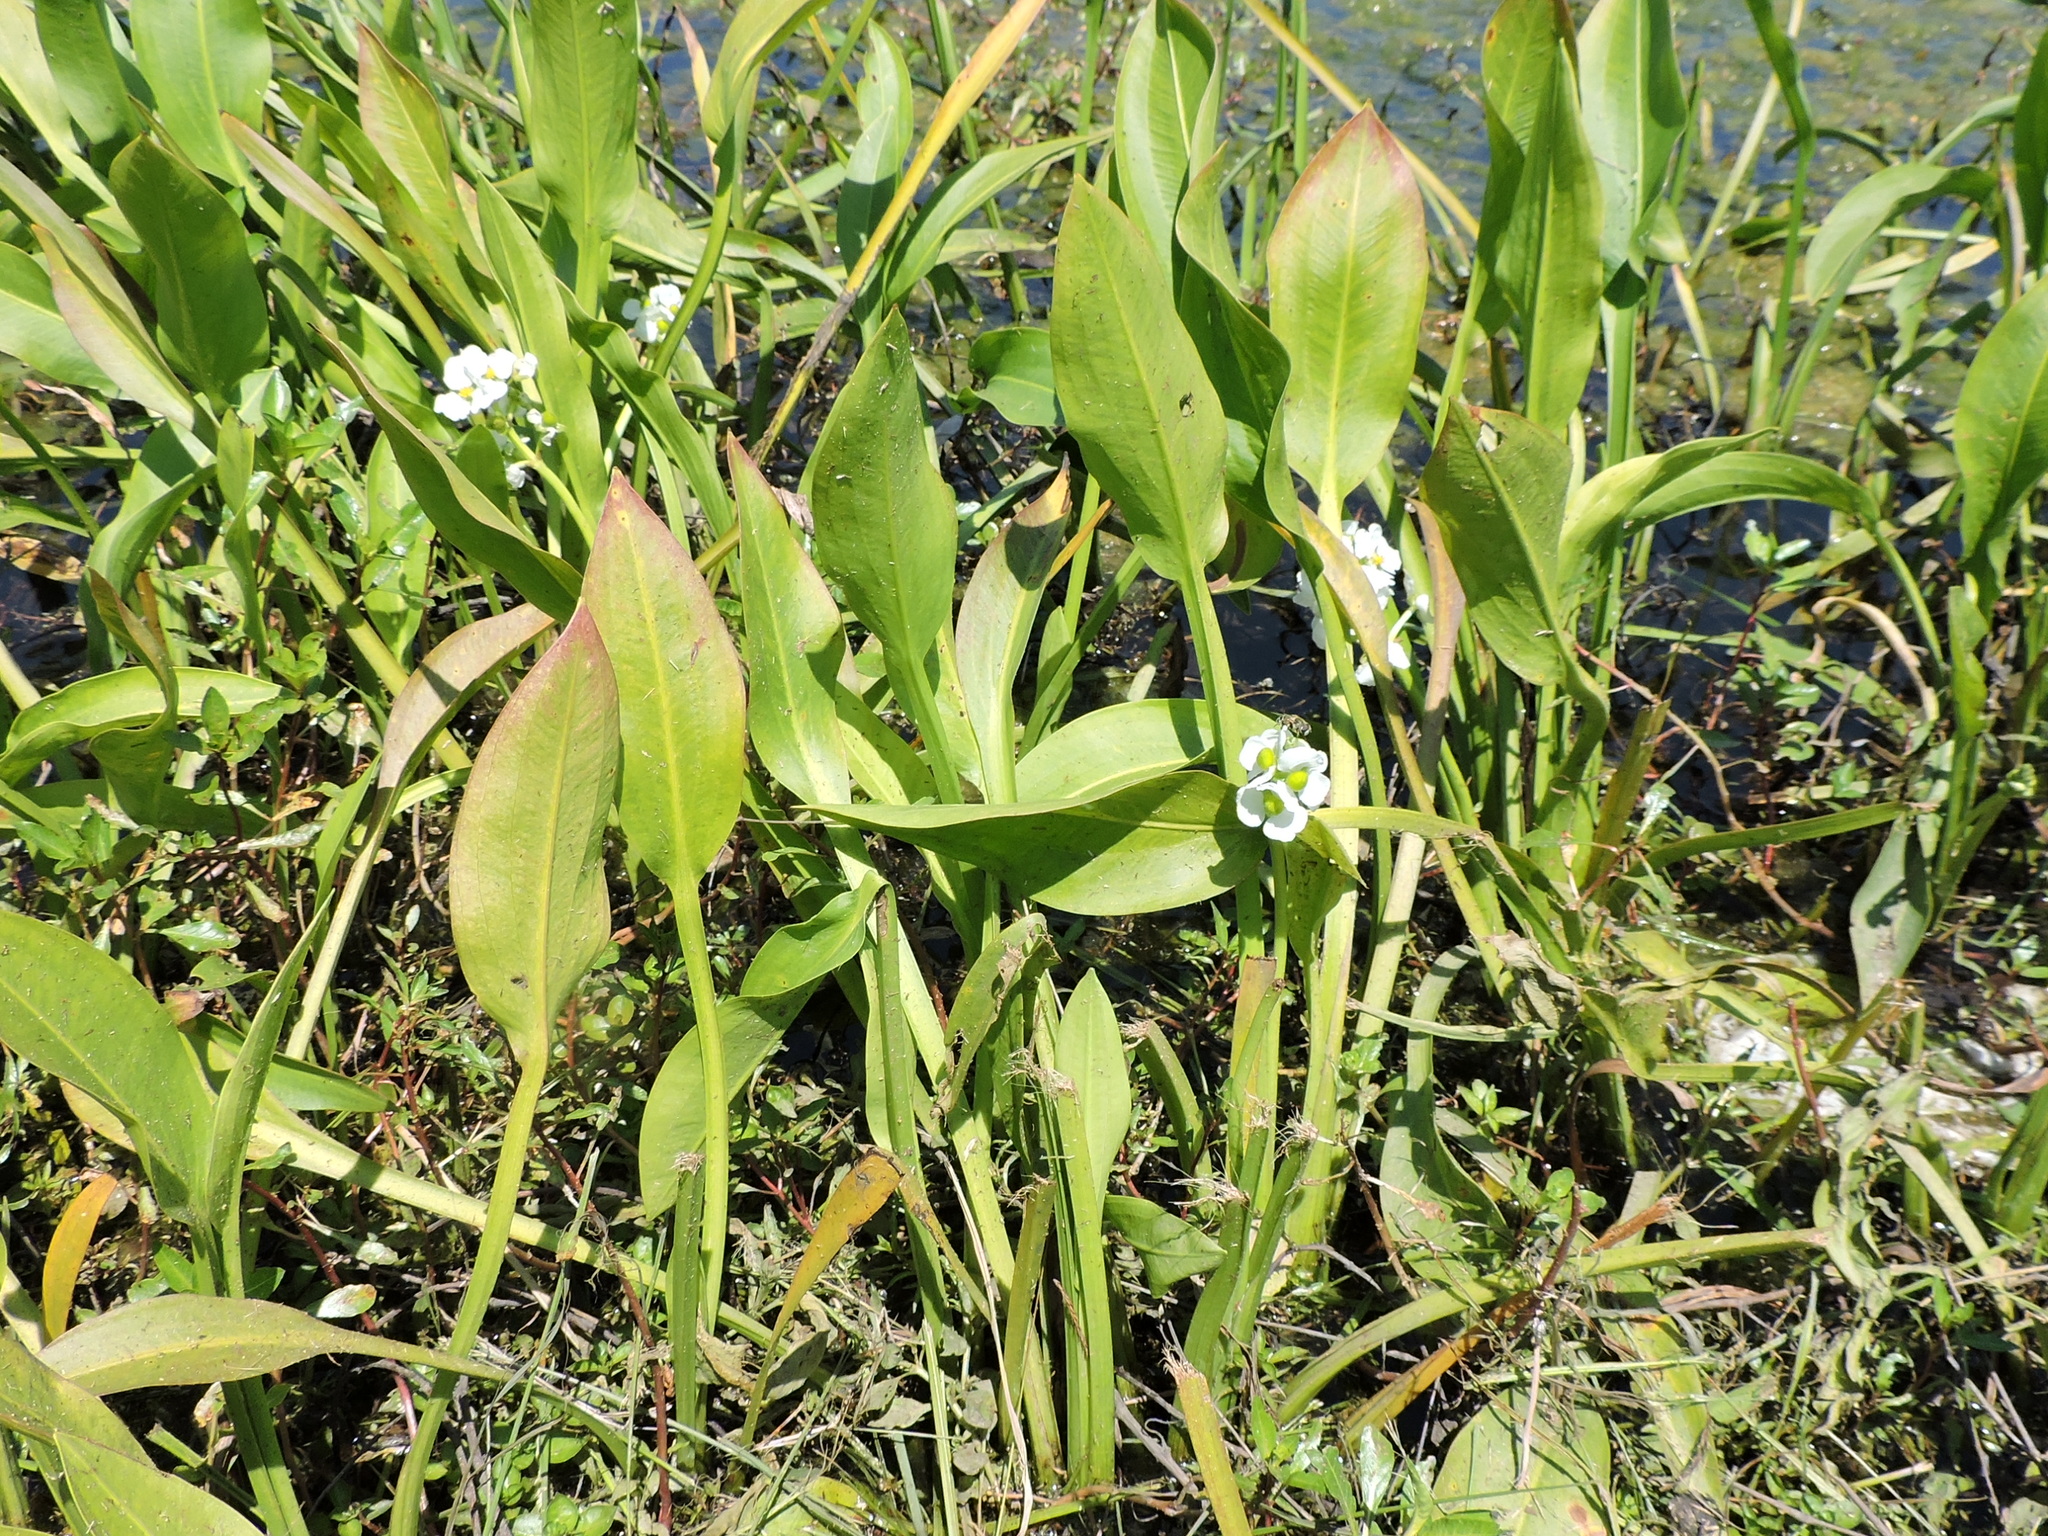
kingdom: Plantae
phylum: Tracheophyta
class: Liliopsida
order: Alismatales
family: Alismataceae
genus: Sagittaria
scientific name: Sagittaria platyphylla
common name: Broad-leaf arrowhead
